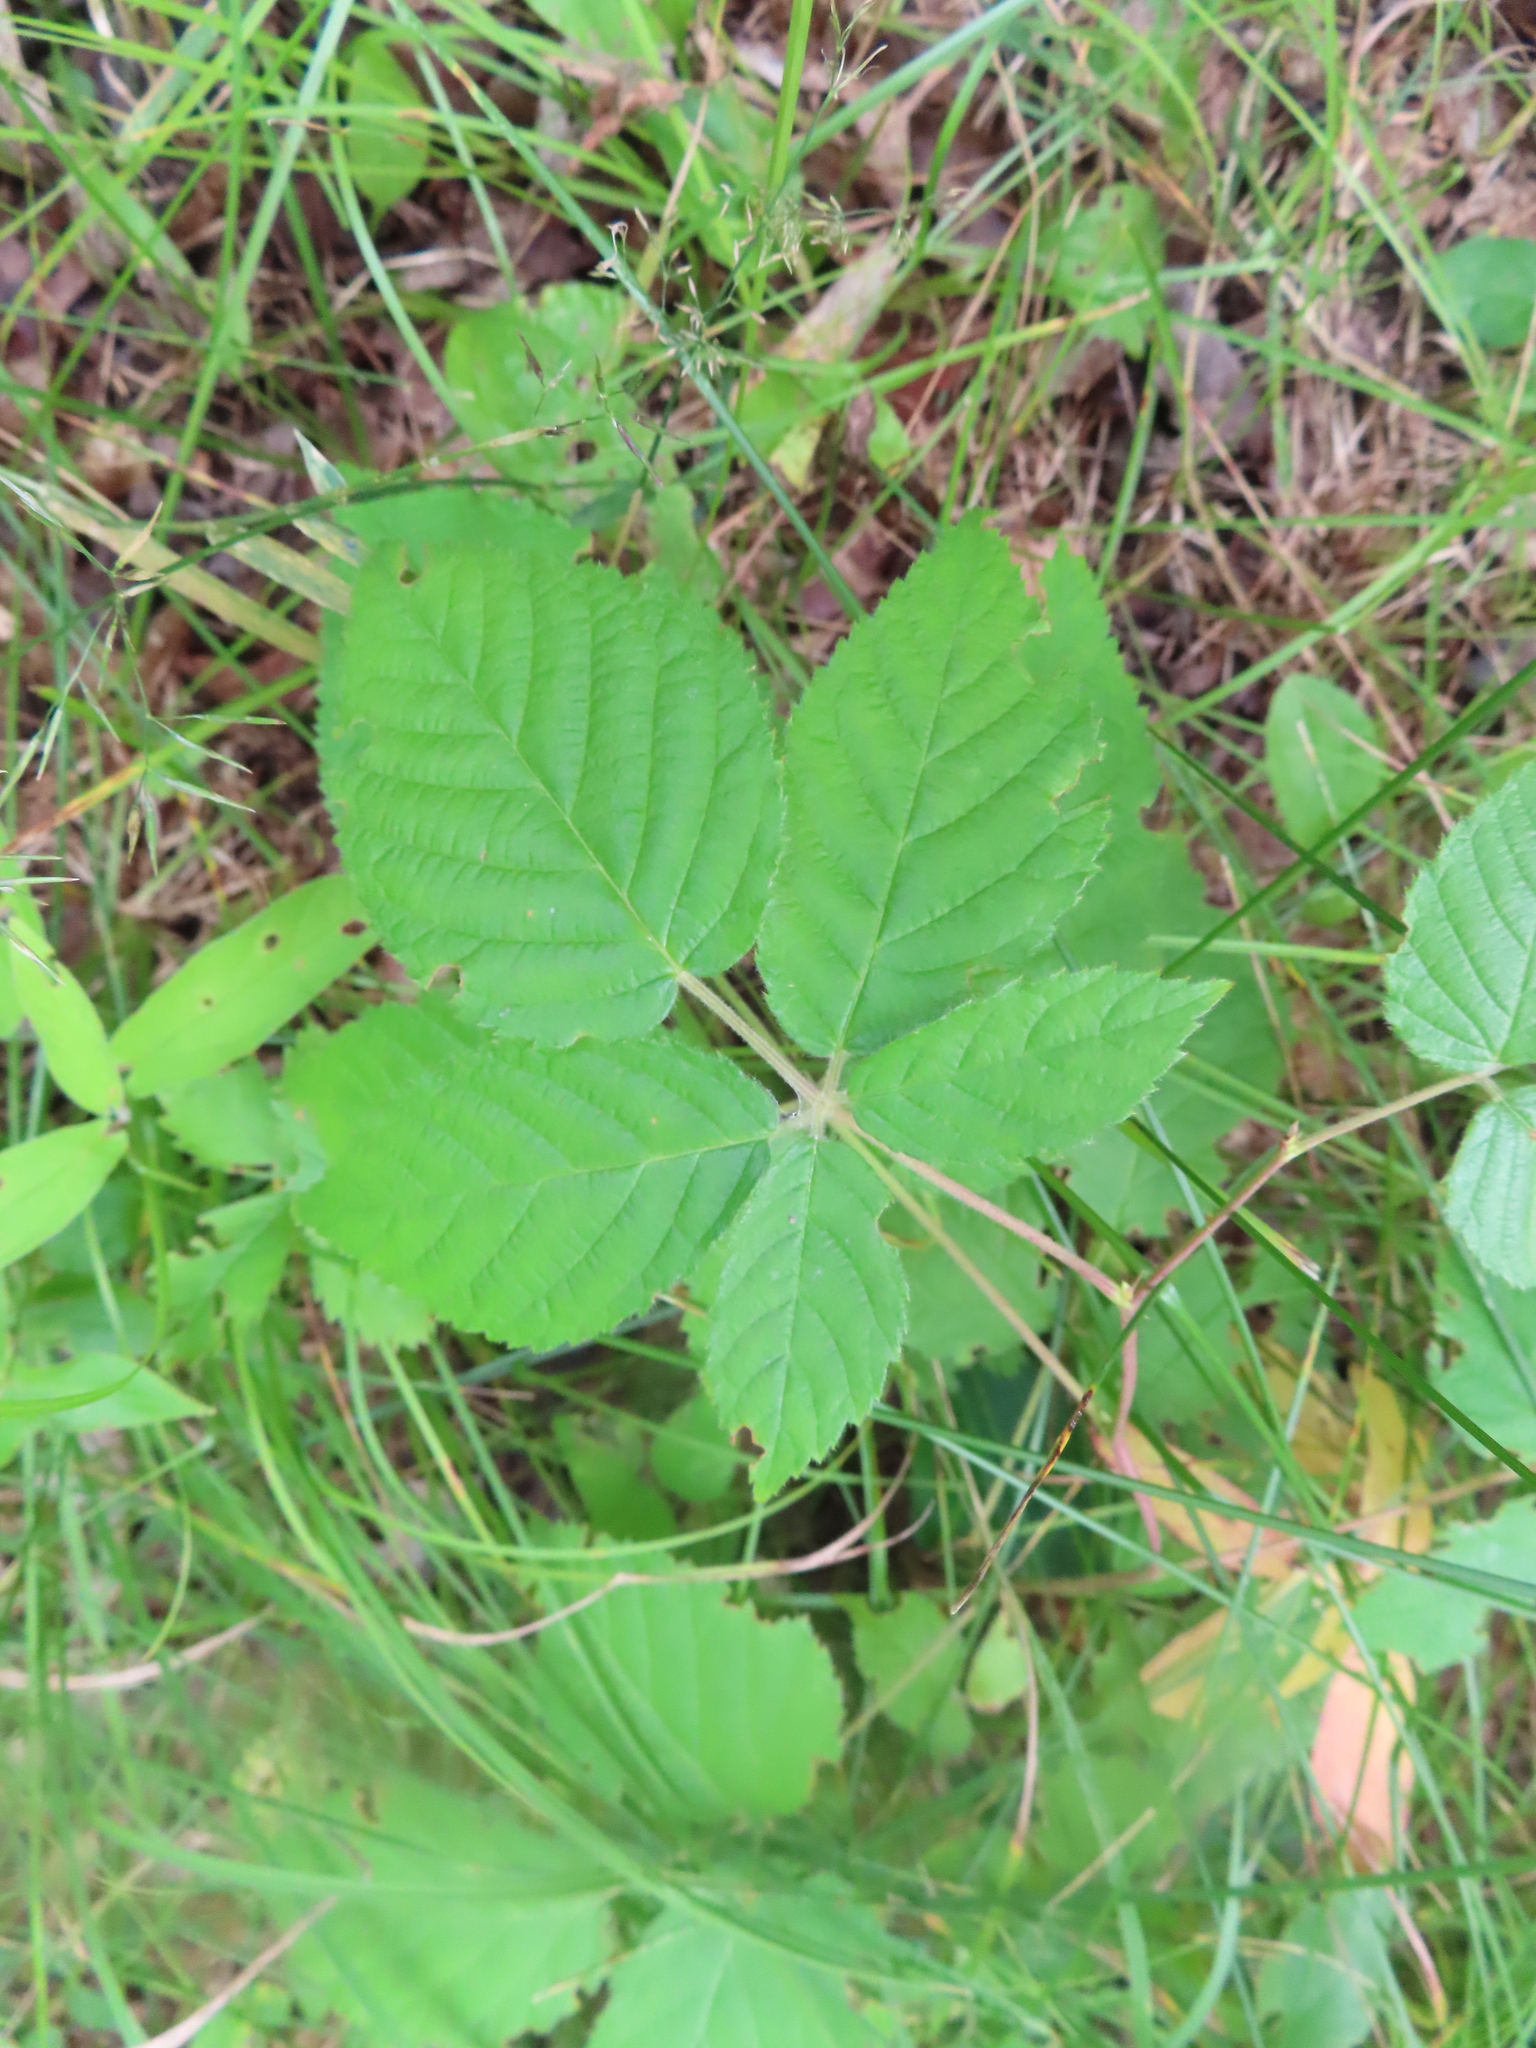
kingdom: Plantae
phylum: Tracheophyta
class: Magnoliopsida
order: Rosales
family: Rosaceae
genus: Rubus
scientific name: Rubus allegheniensis
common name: Allegheny blackberry
